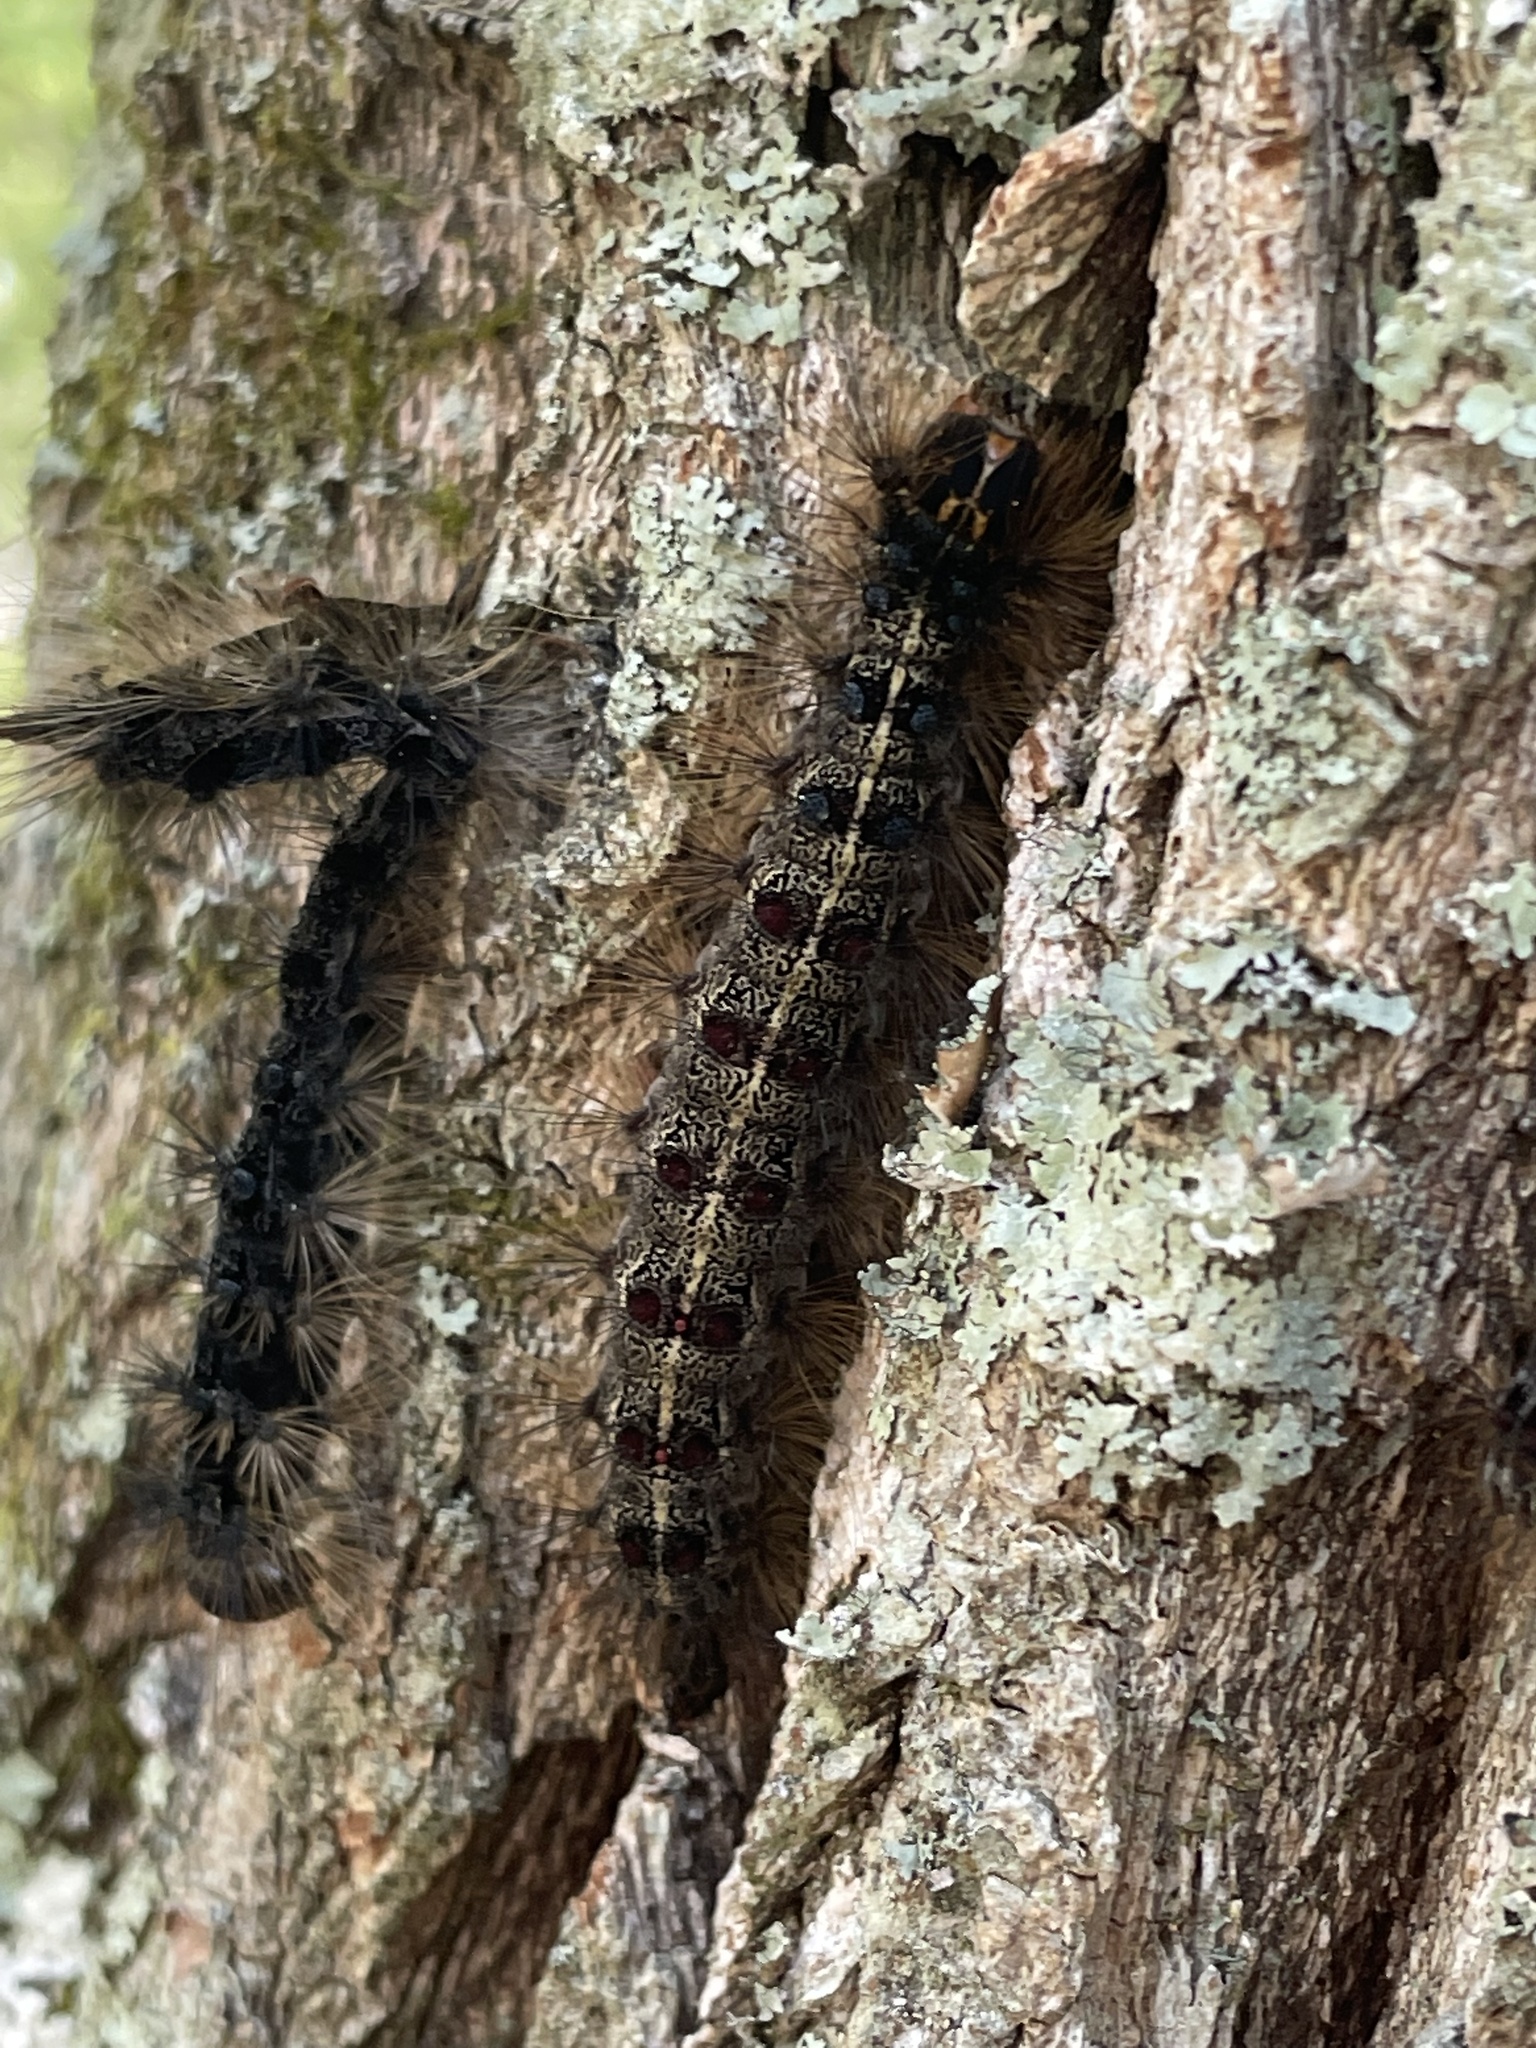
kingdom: Animalia
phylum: Arthropoda
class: Insecta
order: Lepidoptera
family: Erebidae
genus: Lymantria
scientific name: Lymantria dispar
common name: Gypsy moth
